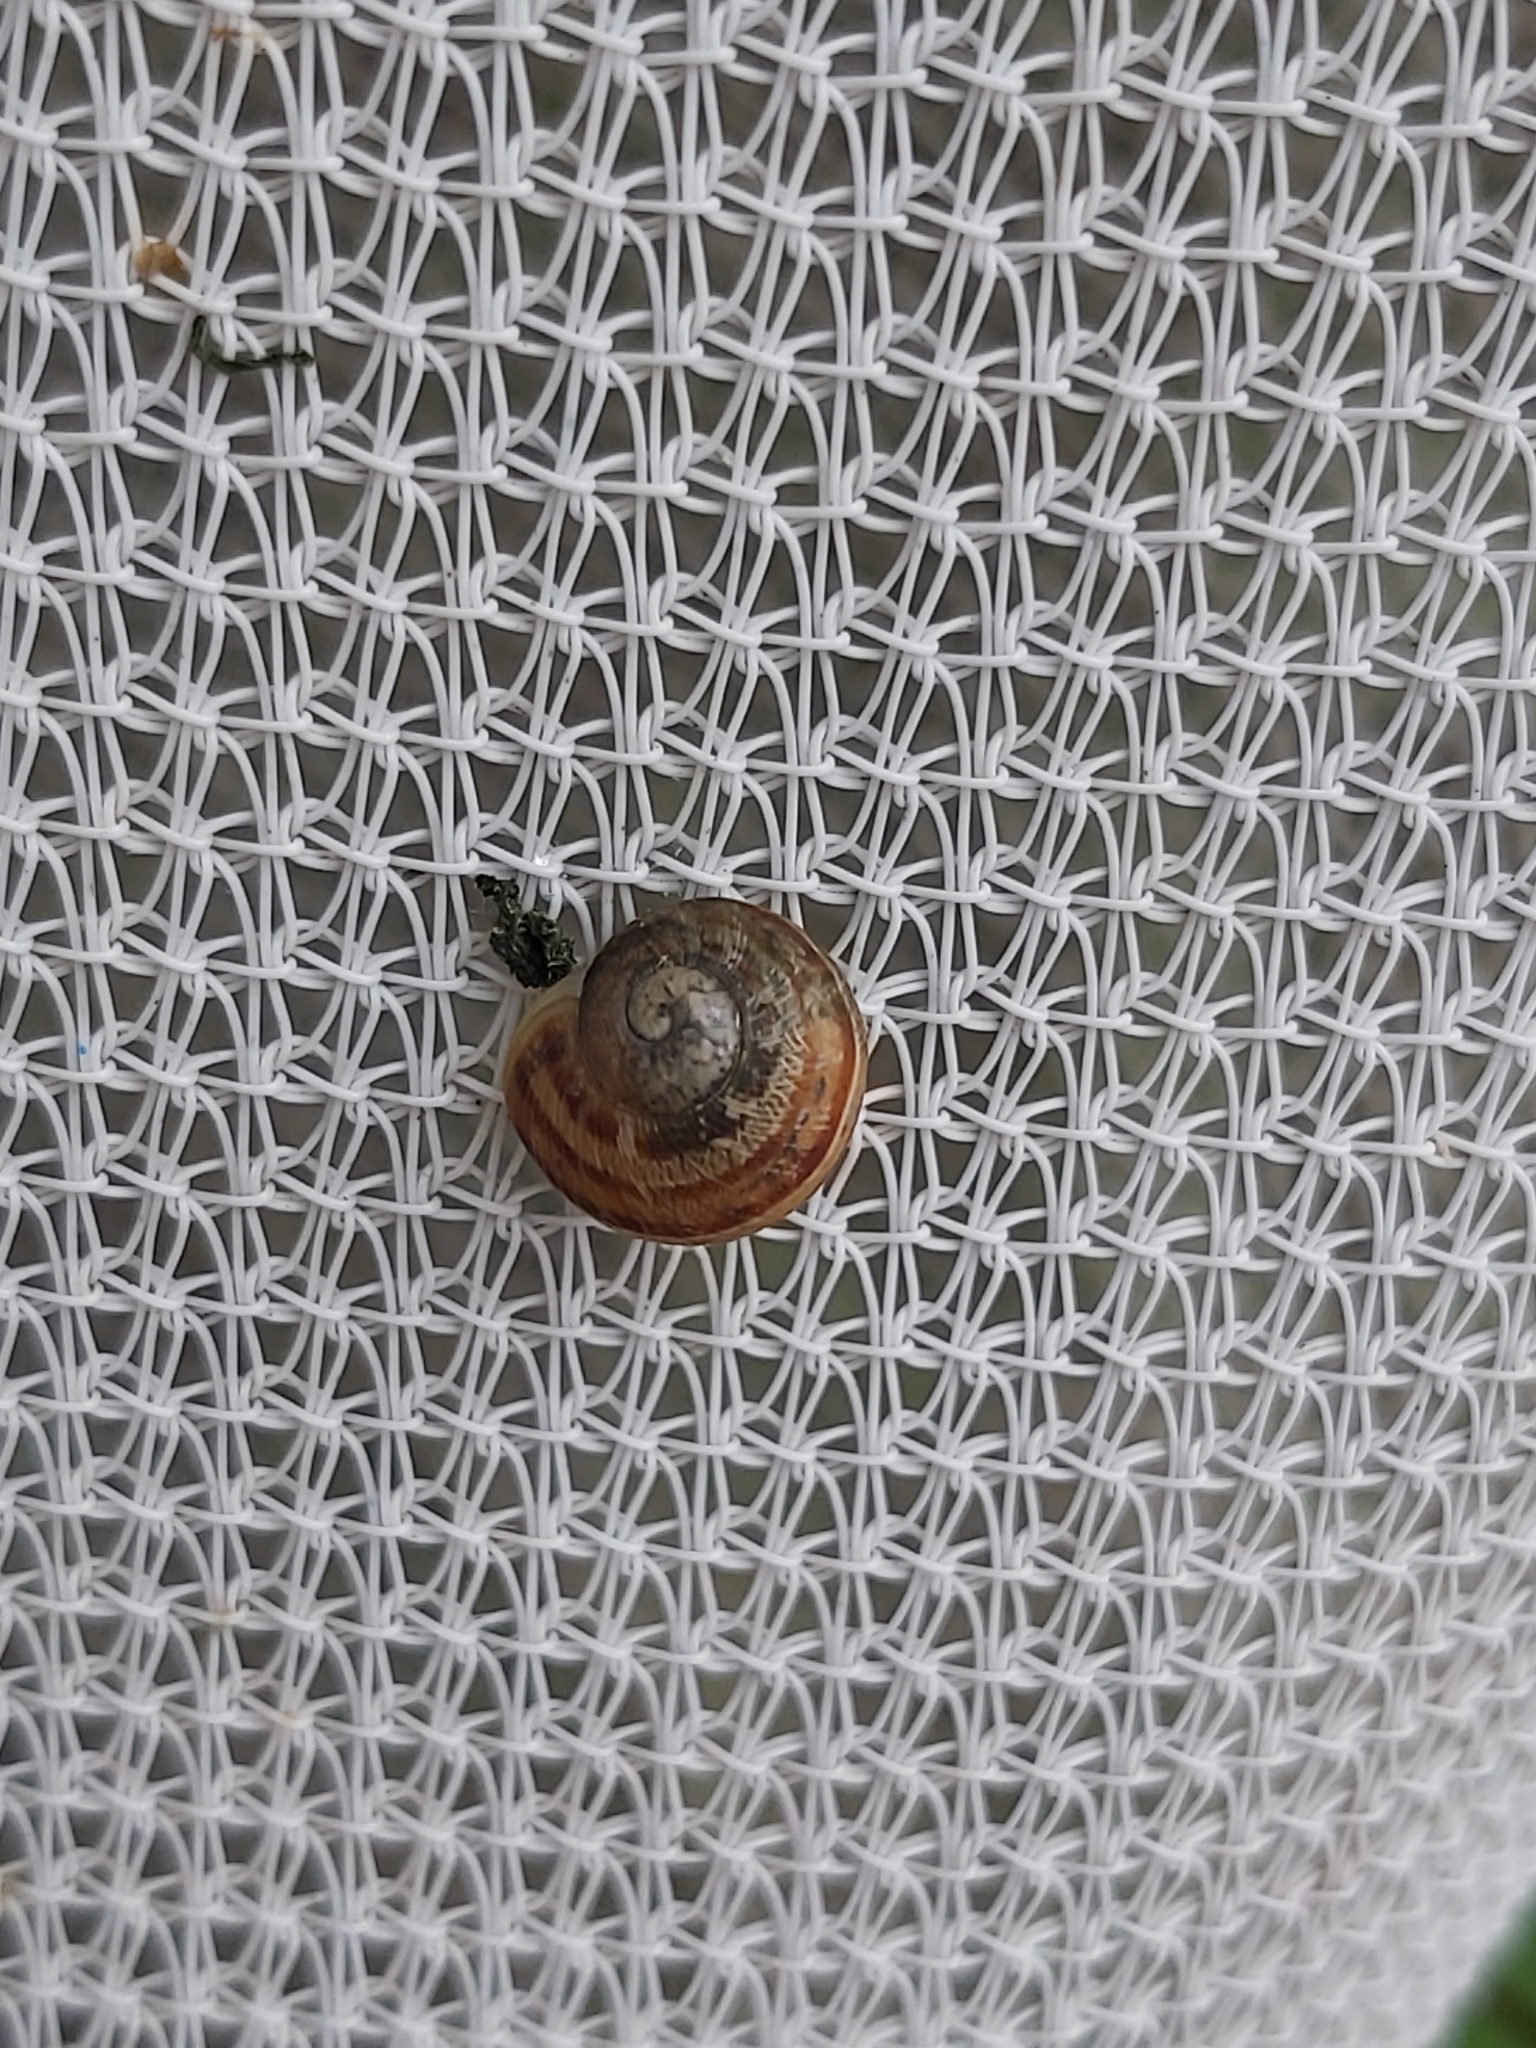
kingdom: Animalia
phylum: Mollusca
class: Gastropoda
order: Stylommatophora
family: Helicidae
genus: Cornu
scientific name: Cornu aspersum
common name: Brown garden snail
